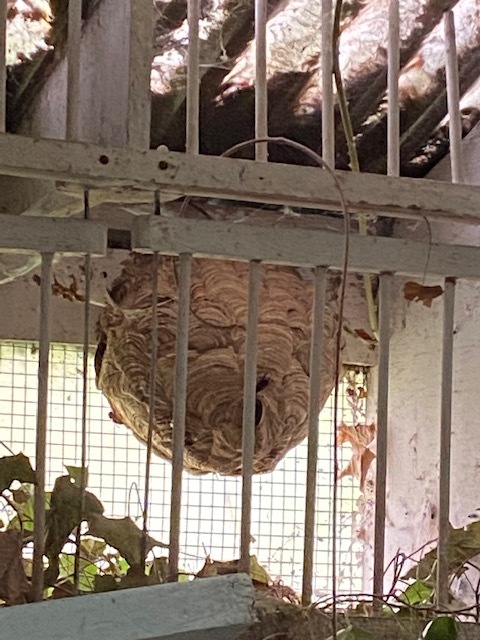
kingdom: Animalia
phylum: Arthropoda
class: Insecta
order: Hymenoptera
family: Vespidae
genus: Vespa
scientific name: Vespa velutina
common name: Asian hornet
